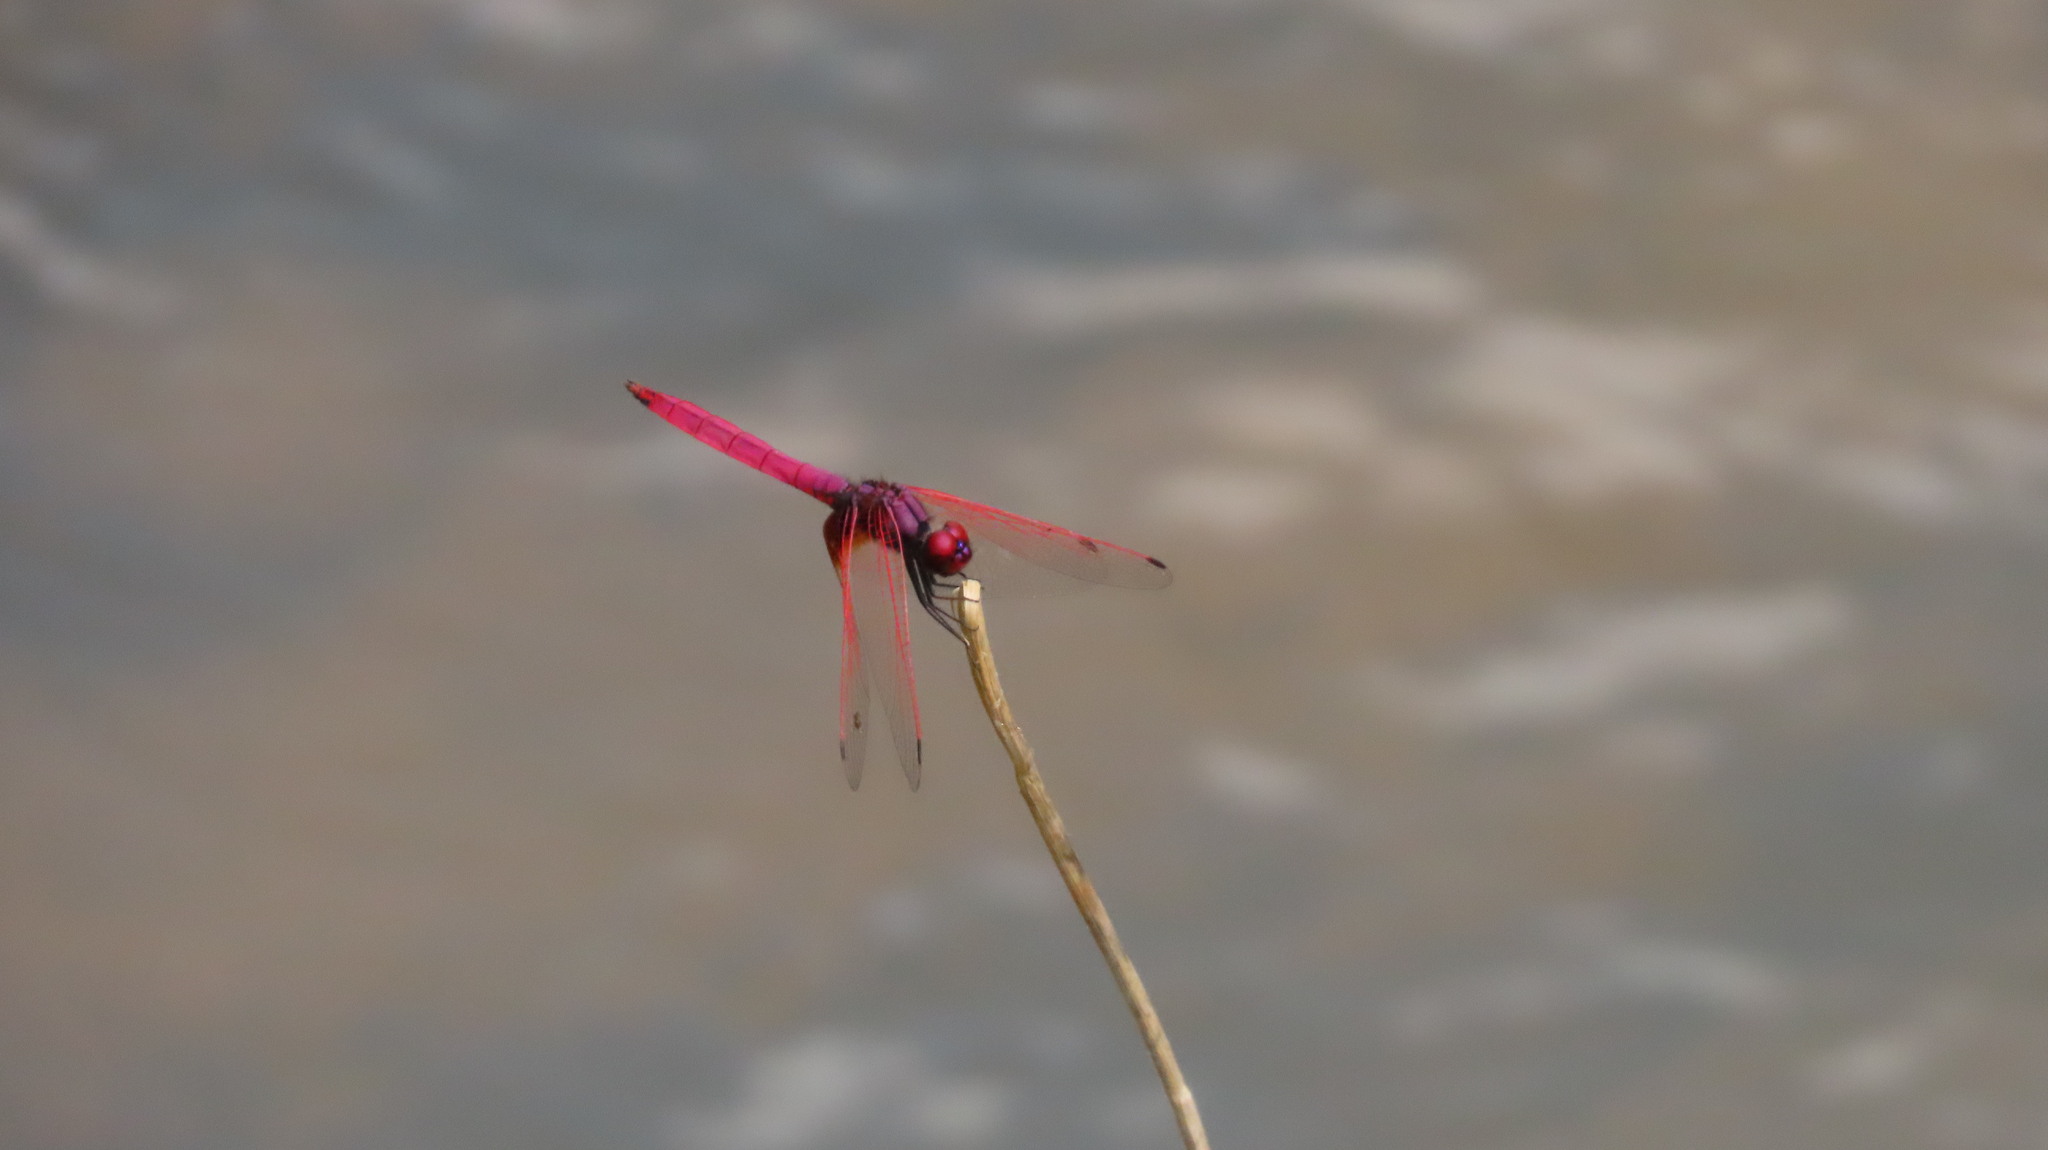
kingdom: Animalia
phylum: Arthropoda
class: Insecta
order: Odonata
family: Libellulidae
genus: Trithemis
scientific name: Trithemis aurora
